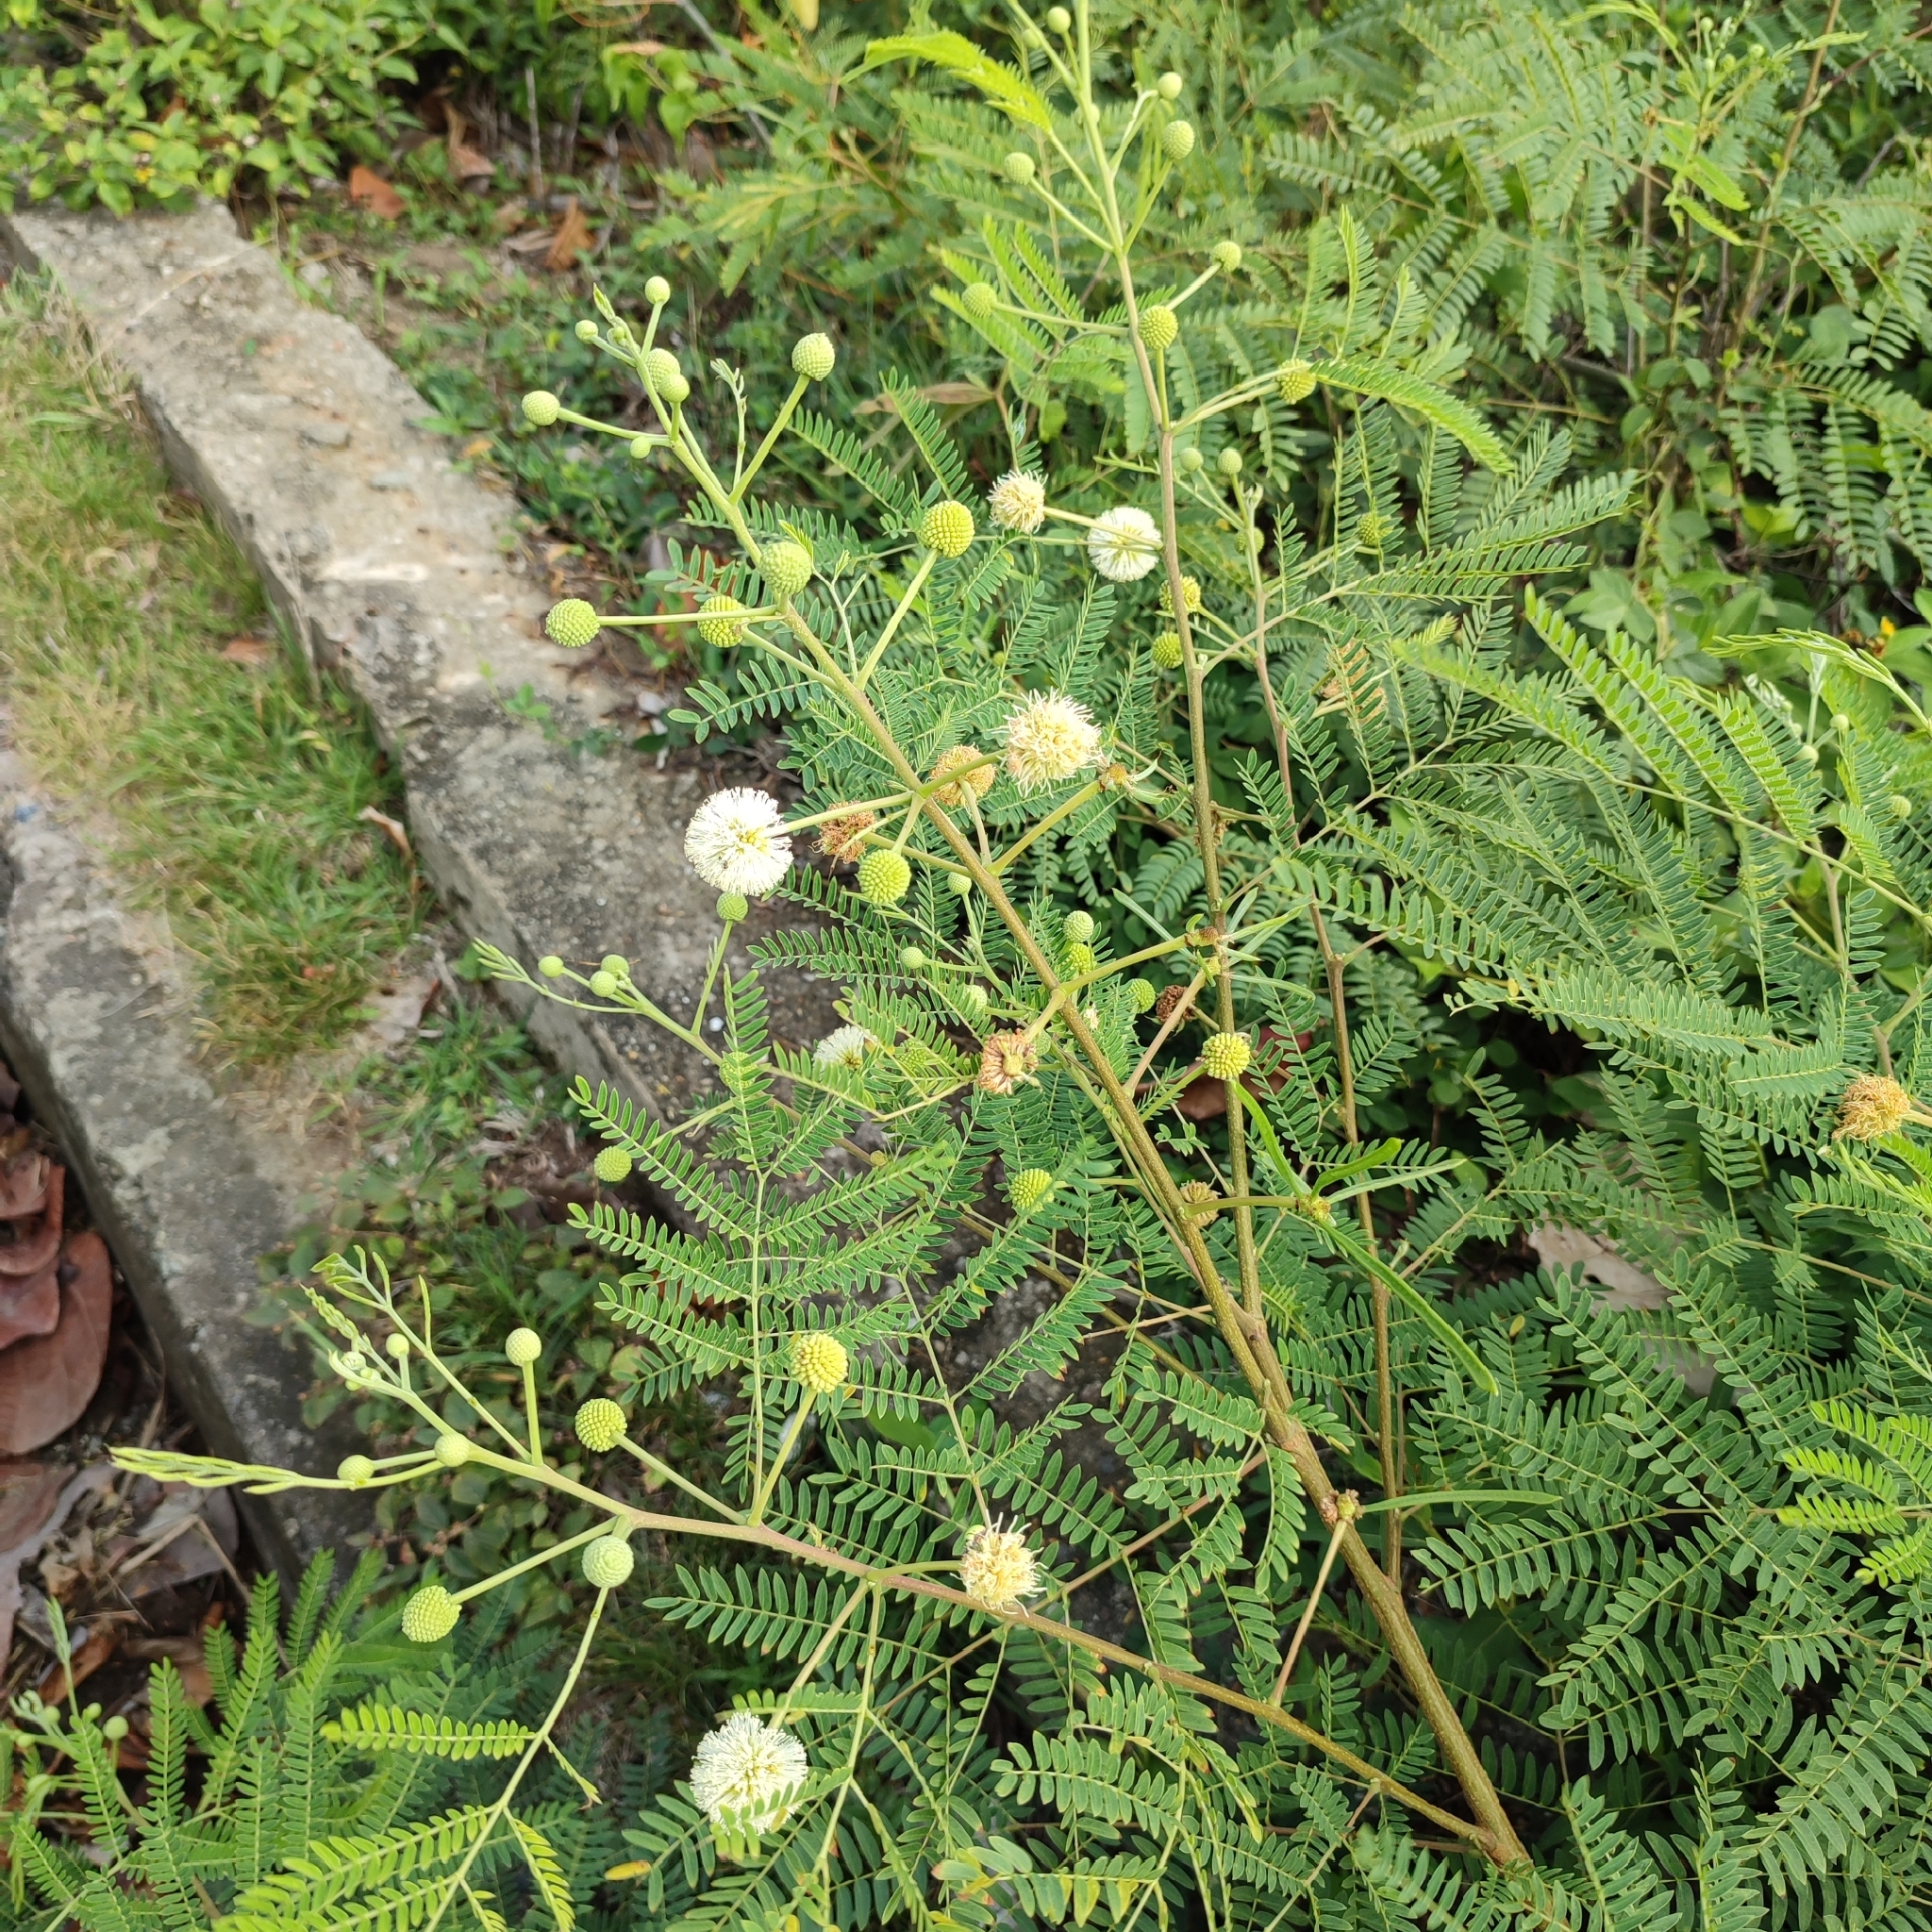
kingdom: Plantae
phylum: Tracheophyta
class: Magnoliopsida
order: Fabales
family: Fabaceae
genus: Leucaena
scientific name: Leucaena leucocephala
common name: White leadtree
